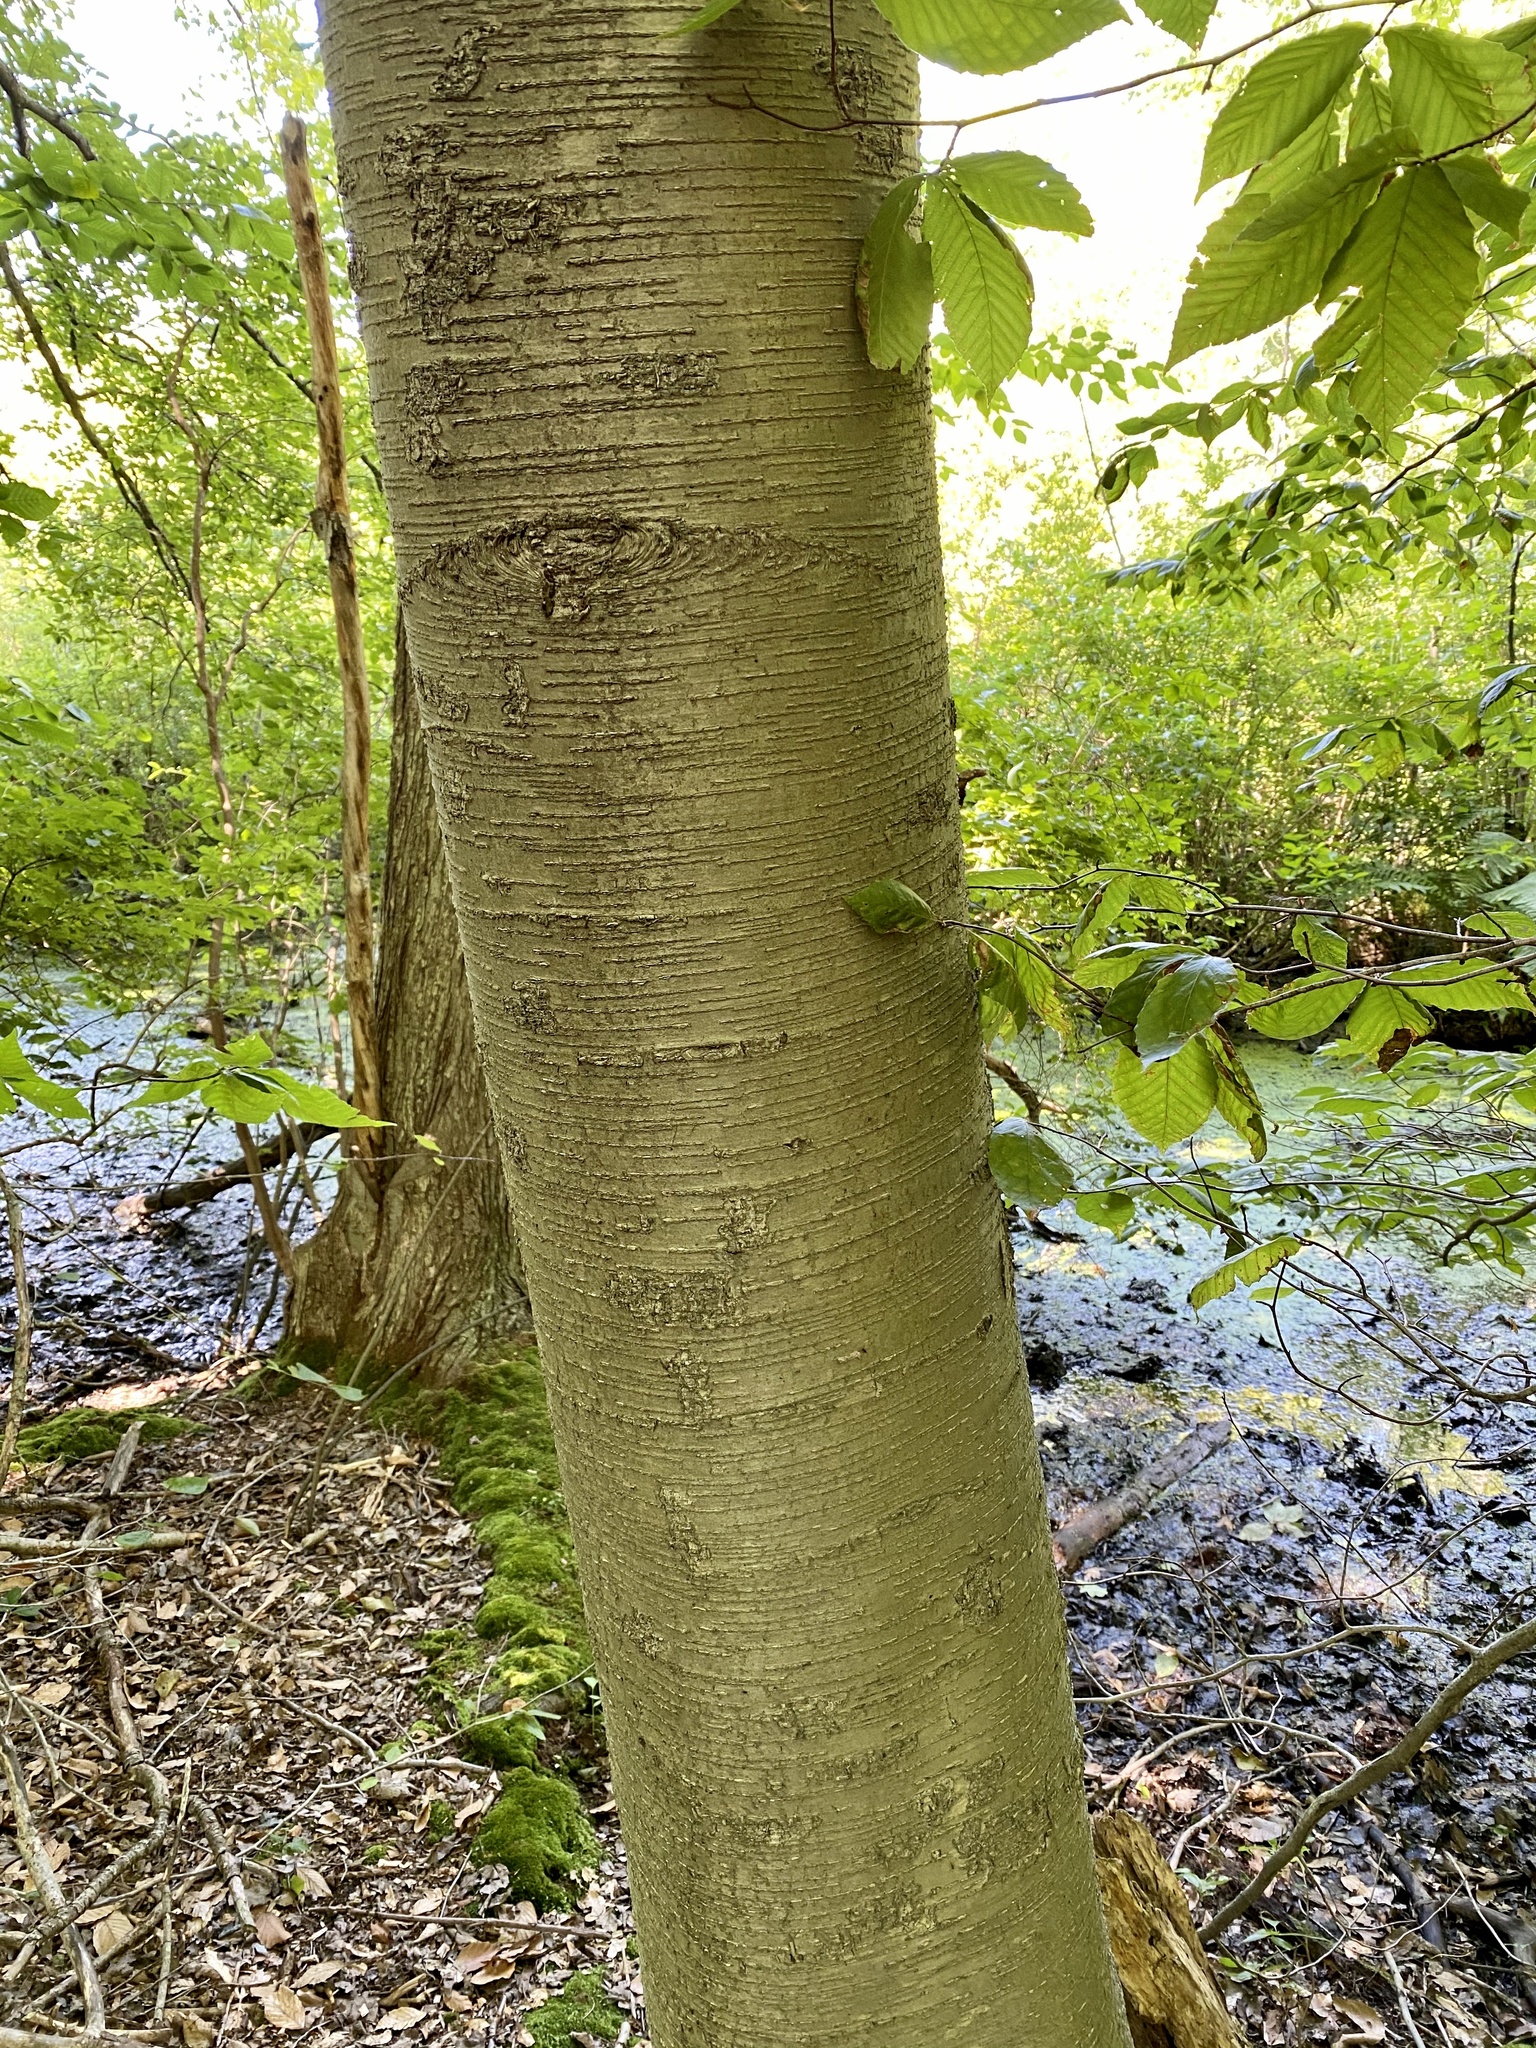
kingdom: Plantae
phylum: Tracheophyta
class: Magnoliopsida
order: Fagales
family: Betulaceae
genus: Betula
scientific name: Betula lenta
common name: Black birch
